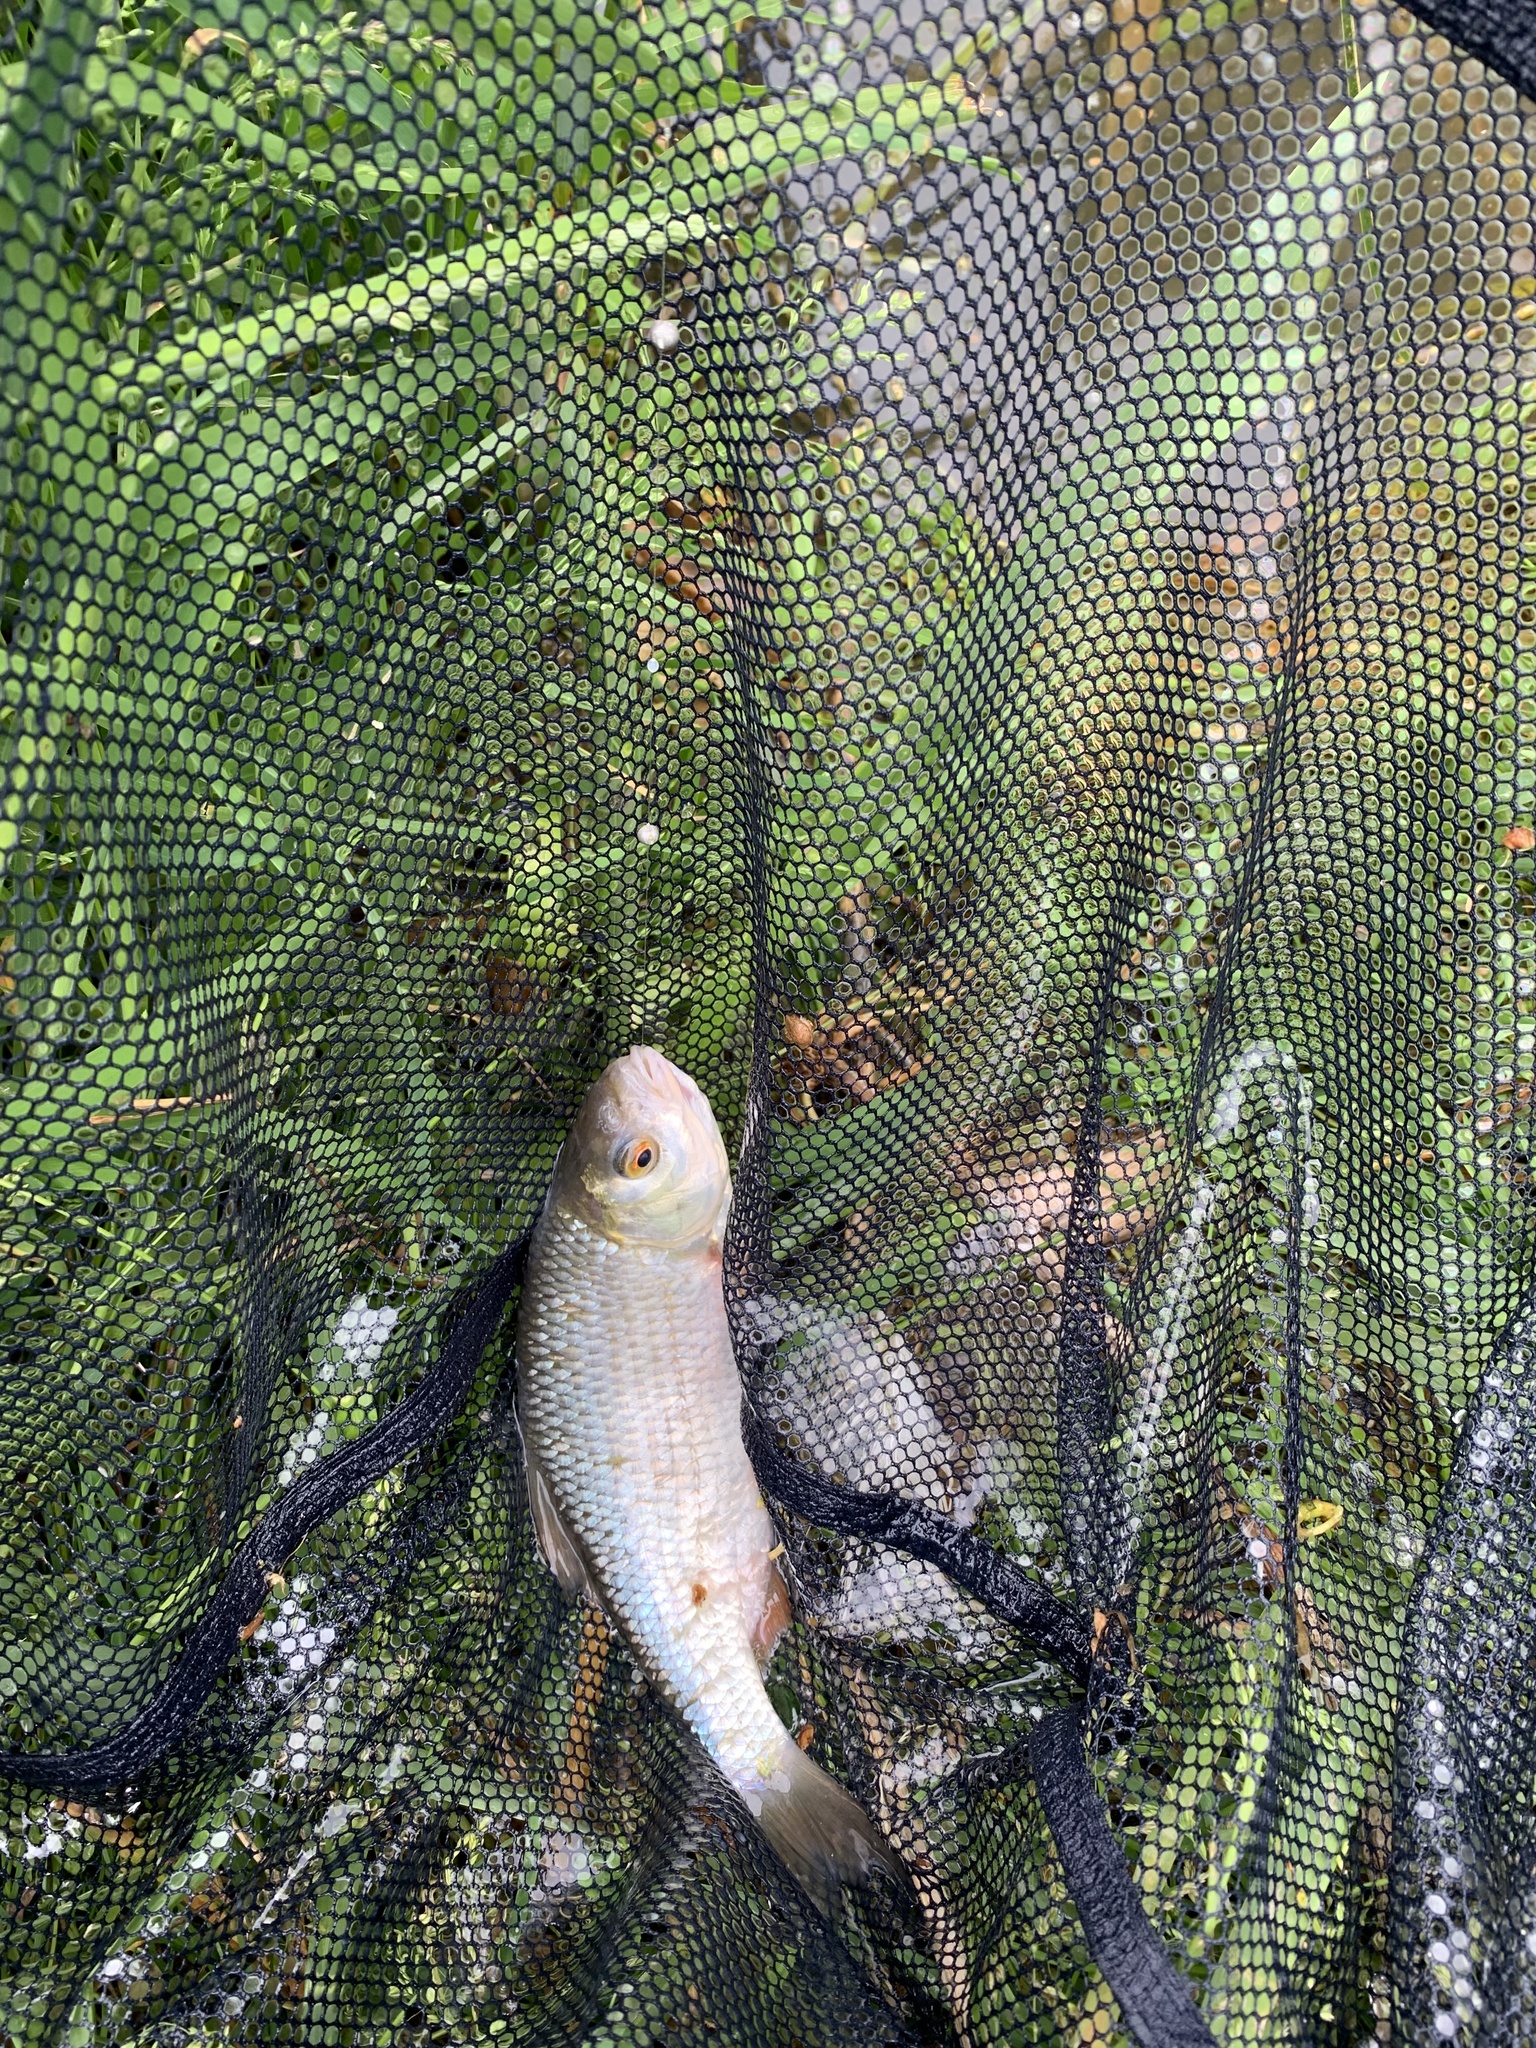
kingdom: Animalia
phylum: Chordata
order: Cypriniformes
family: Cyprinidae
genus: Rutilus
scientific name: Rutilus rutilus
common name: Roach
